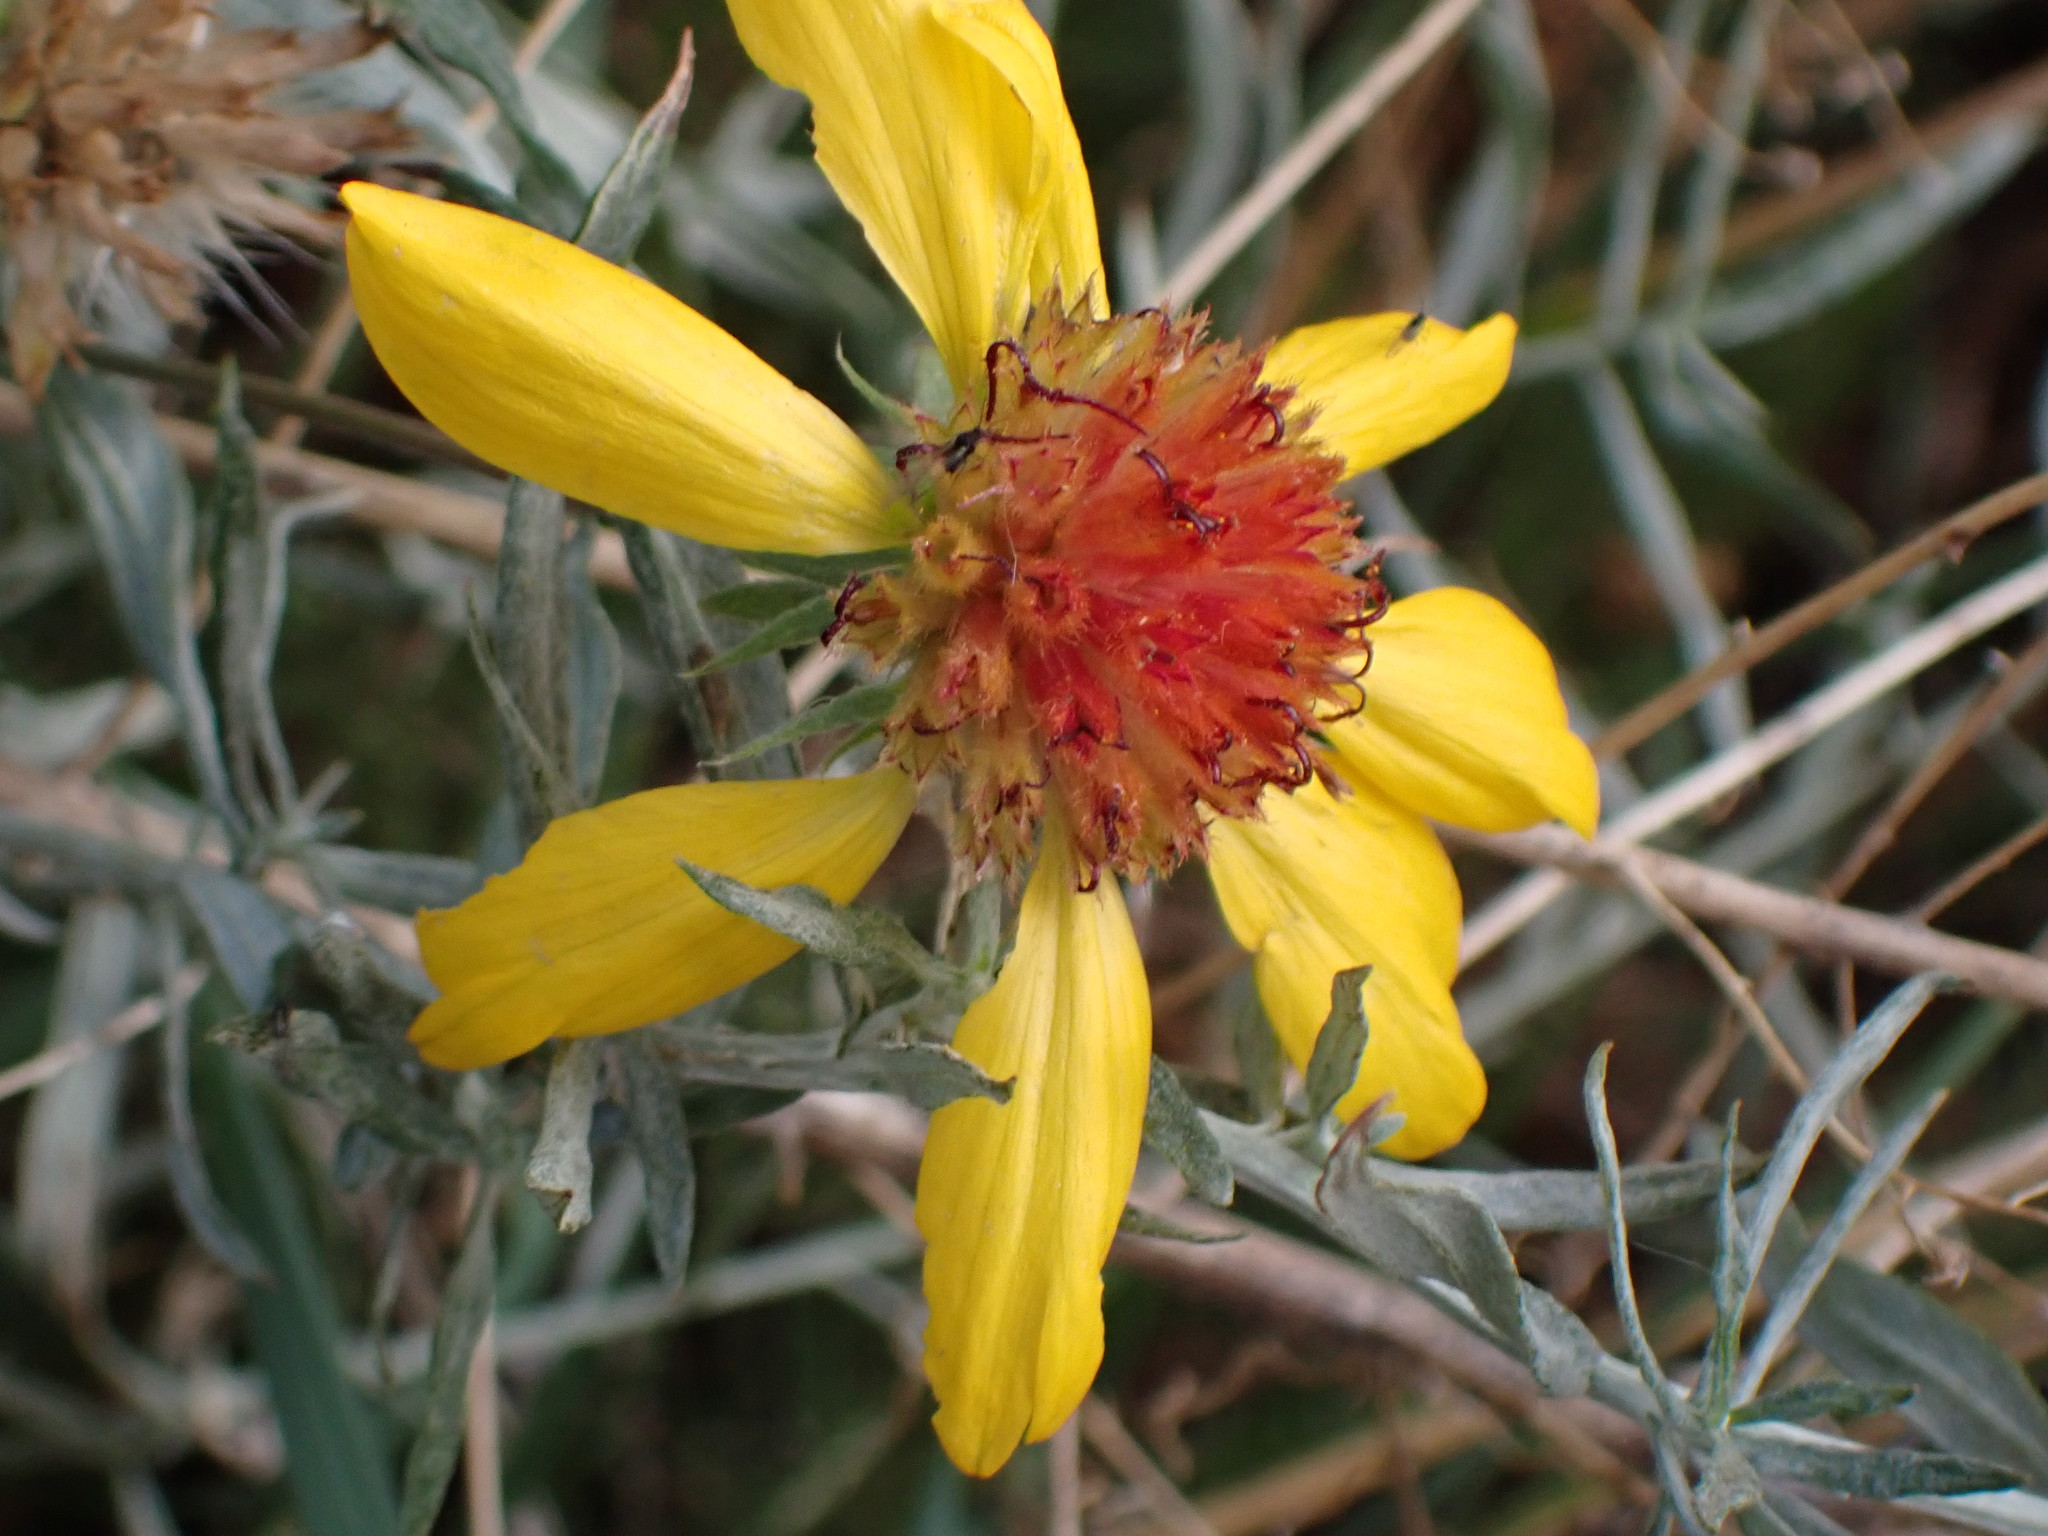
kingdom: Plantae
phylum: Tracheophyta
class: Magnoliopsida
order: Asterales
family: Asteraceae
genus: Gaillardia
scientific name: Gaillardia aristata
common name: Blanket-flower
